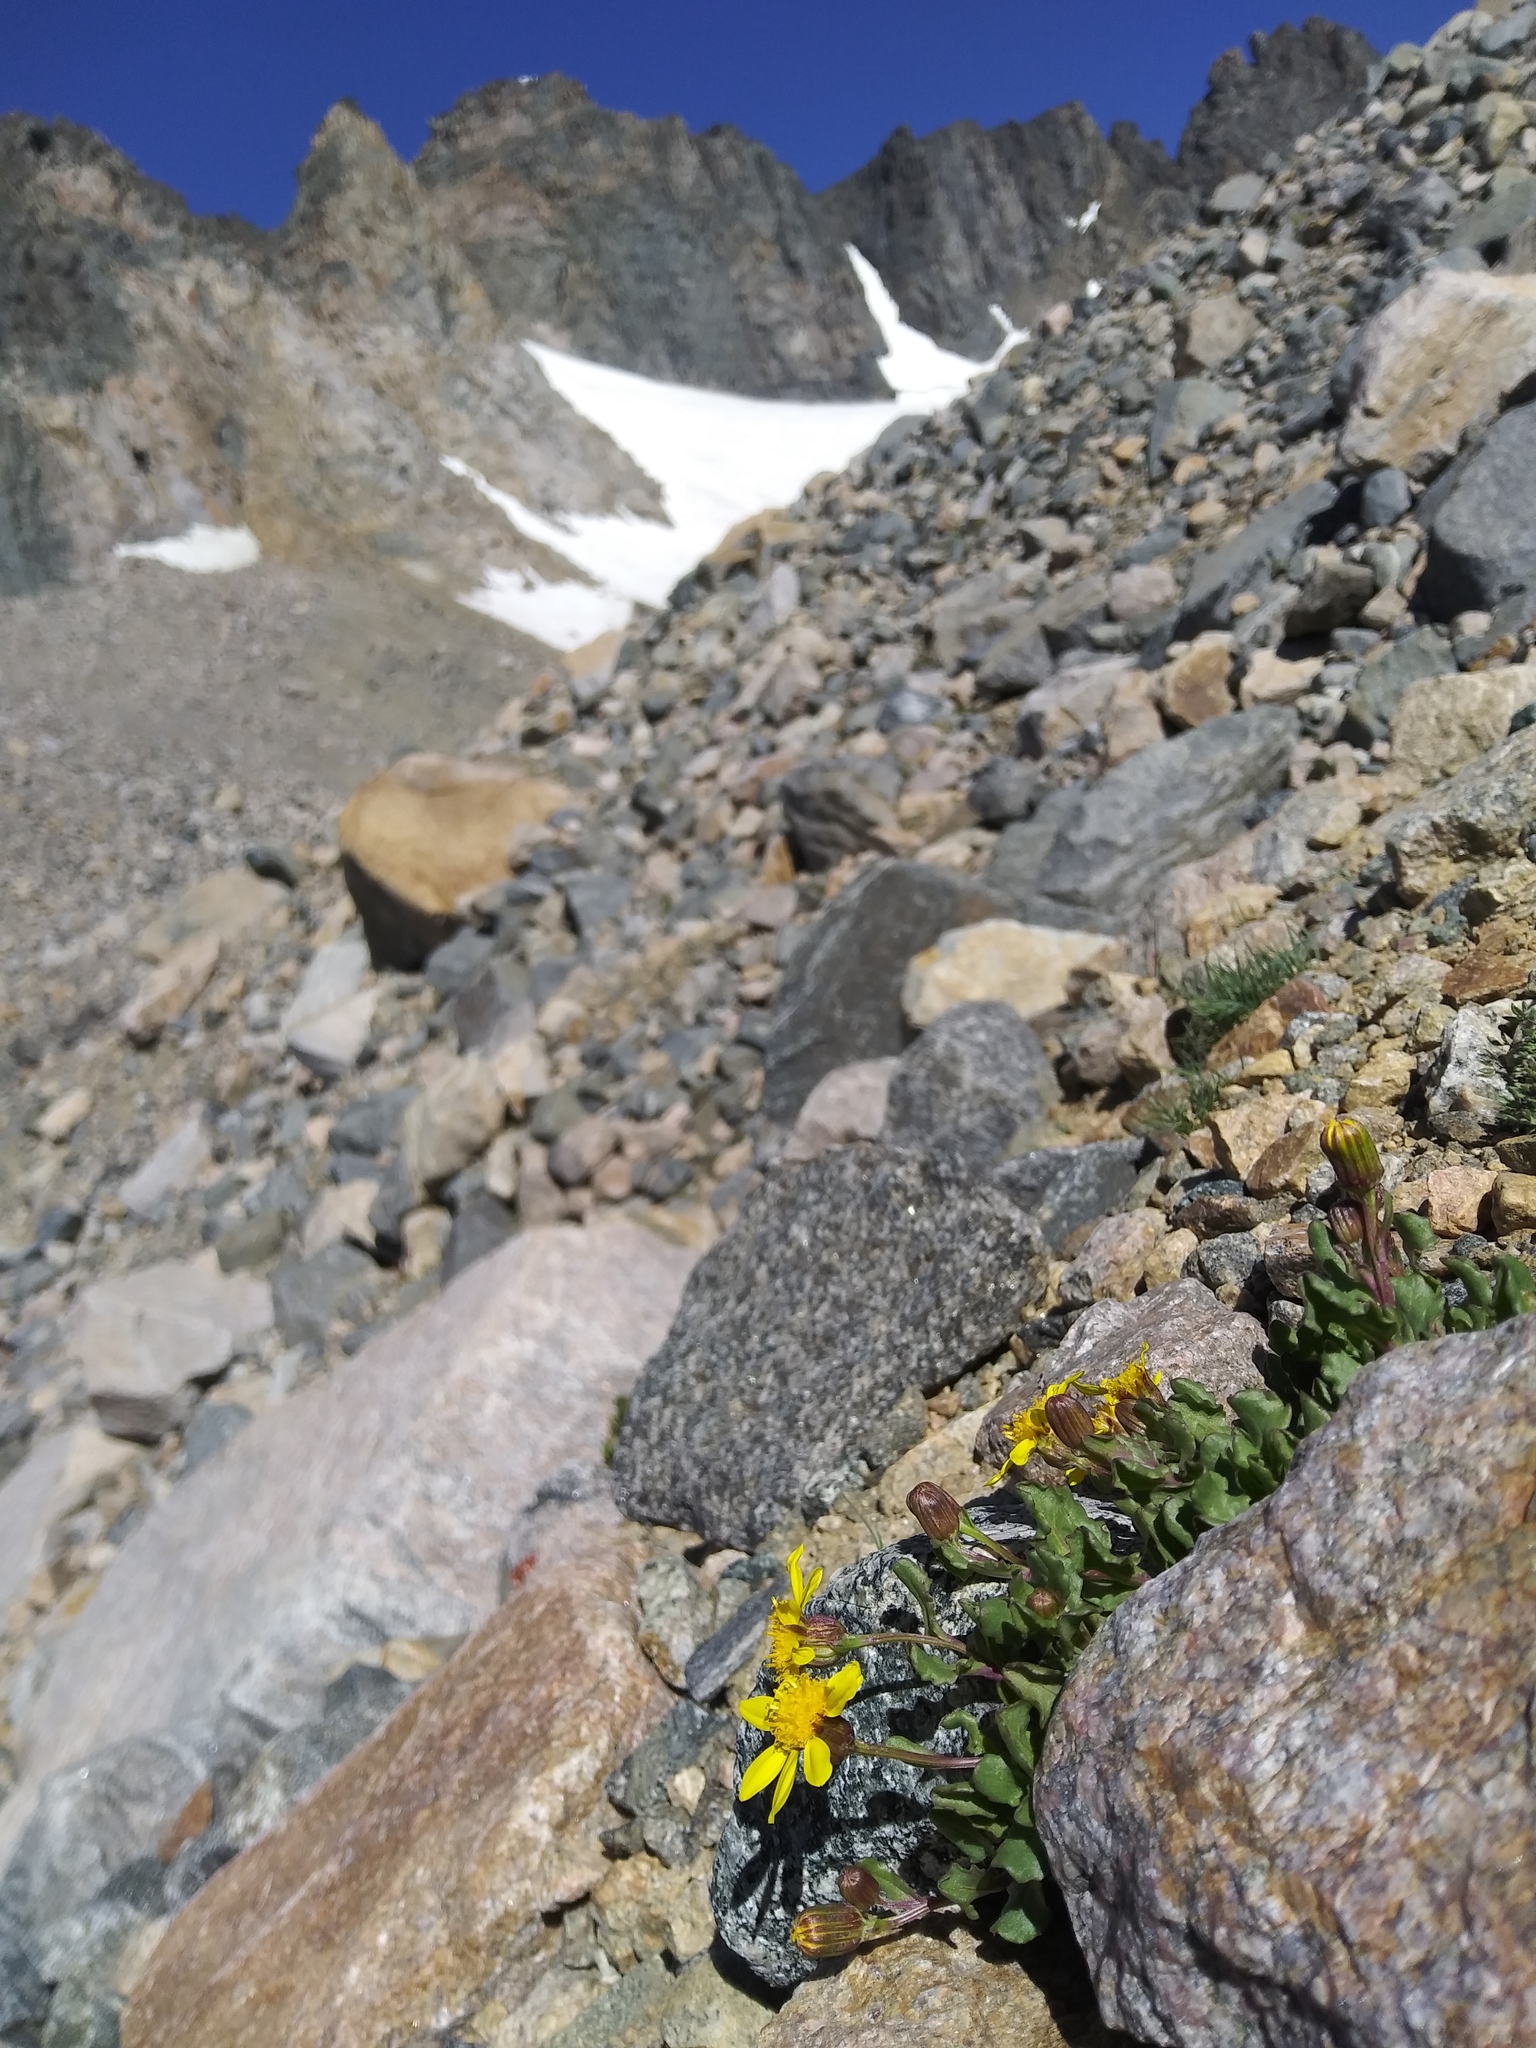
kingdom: Plantae
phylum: Tracheophyta
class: Magnoliopsida
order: Asterales
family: Asteraceae
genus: Senecio
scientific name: Senecio fremontii
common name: Fremont's groundsel
